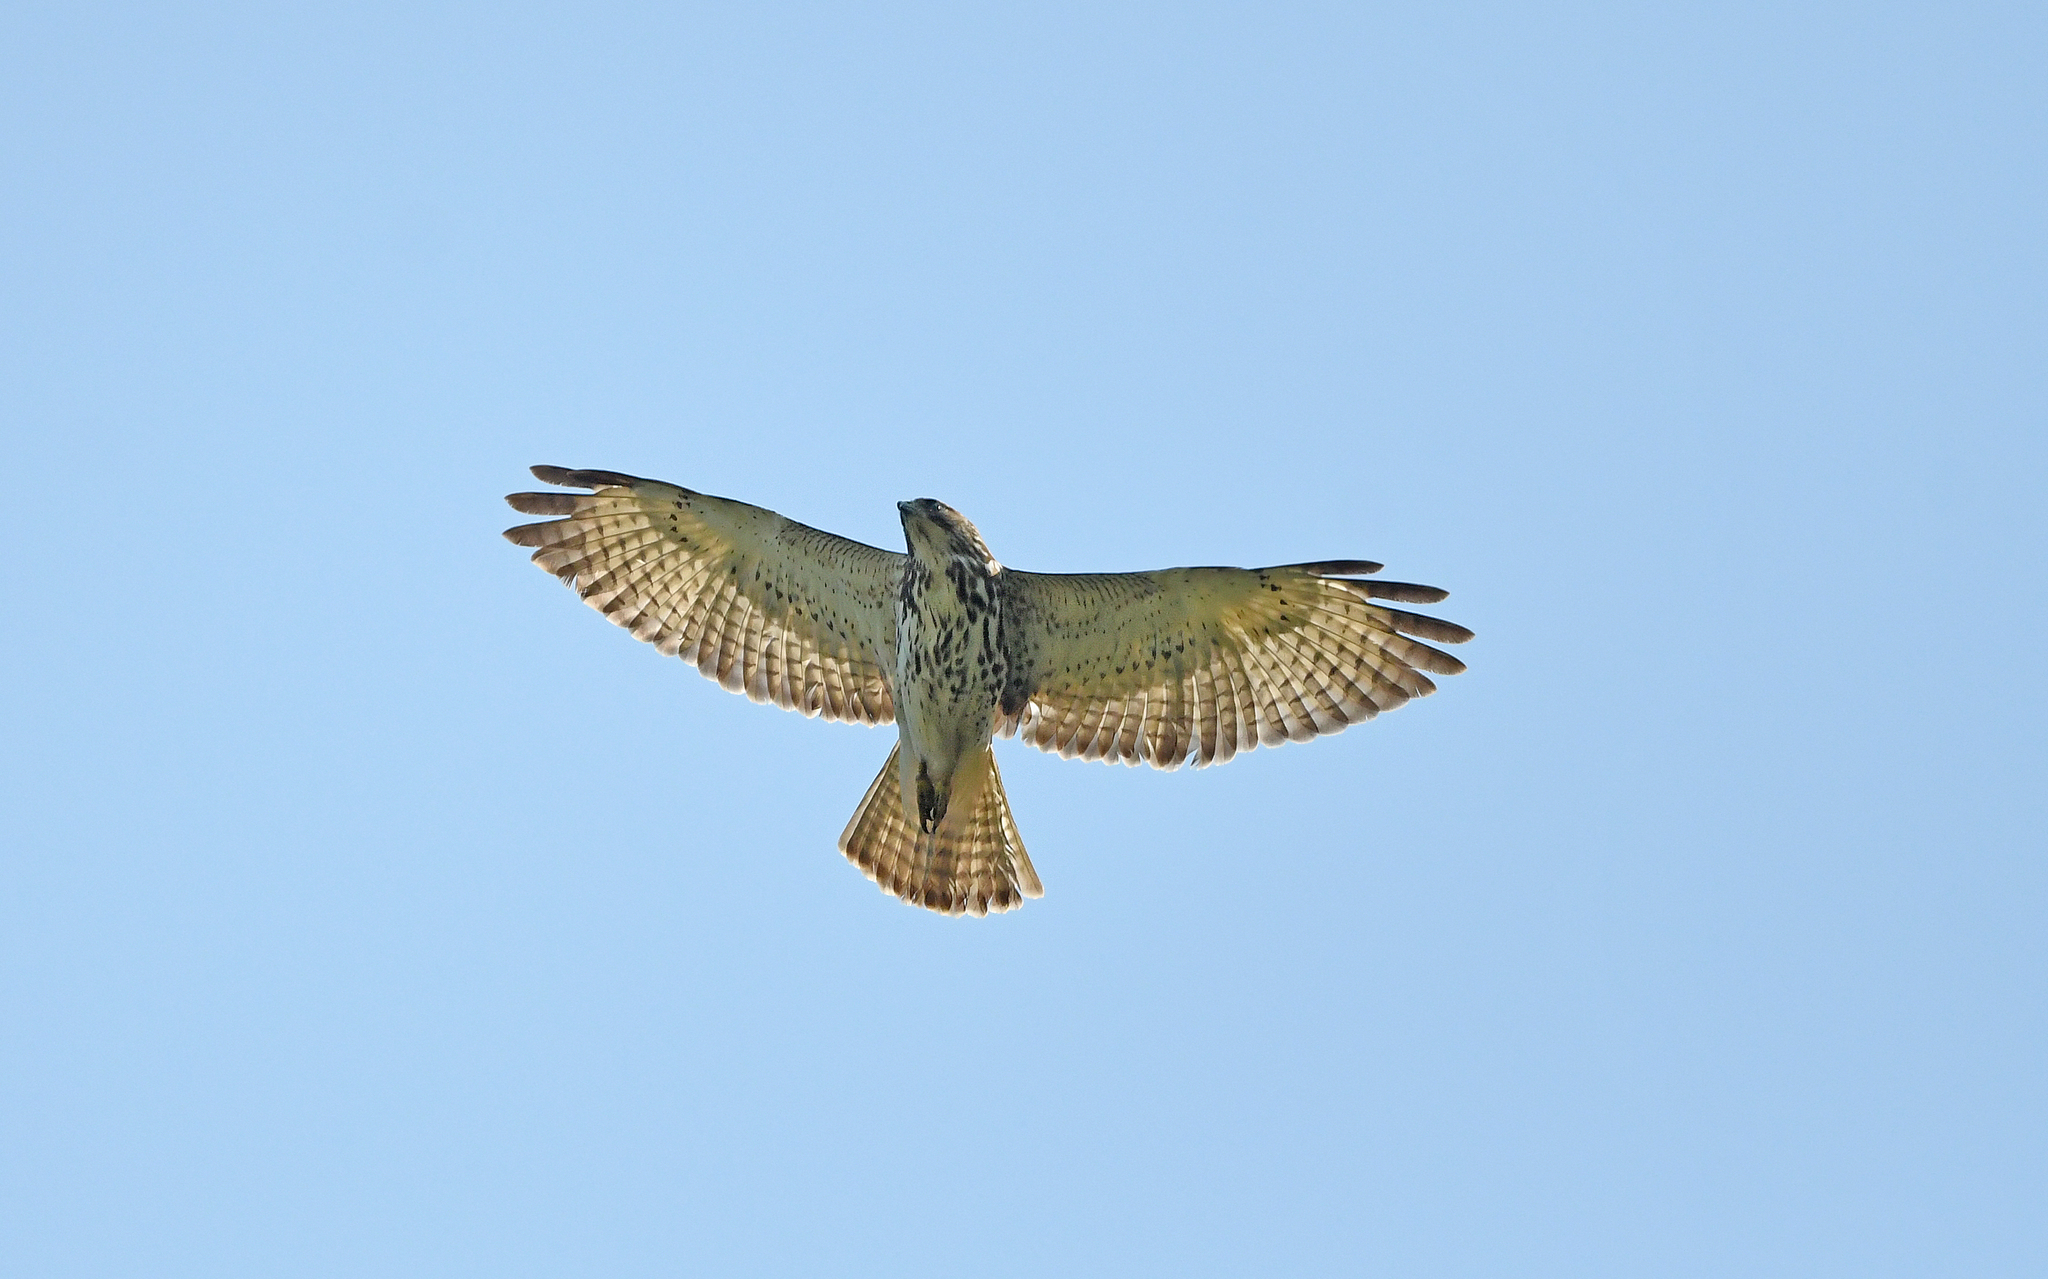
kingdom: Animalia
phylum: Chordata
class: Aves
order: Accipitriformes
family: Accipitridae
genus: Buteo
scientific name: Buteo platypterus
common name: Broad-winged hawk
